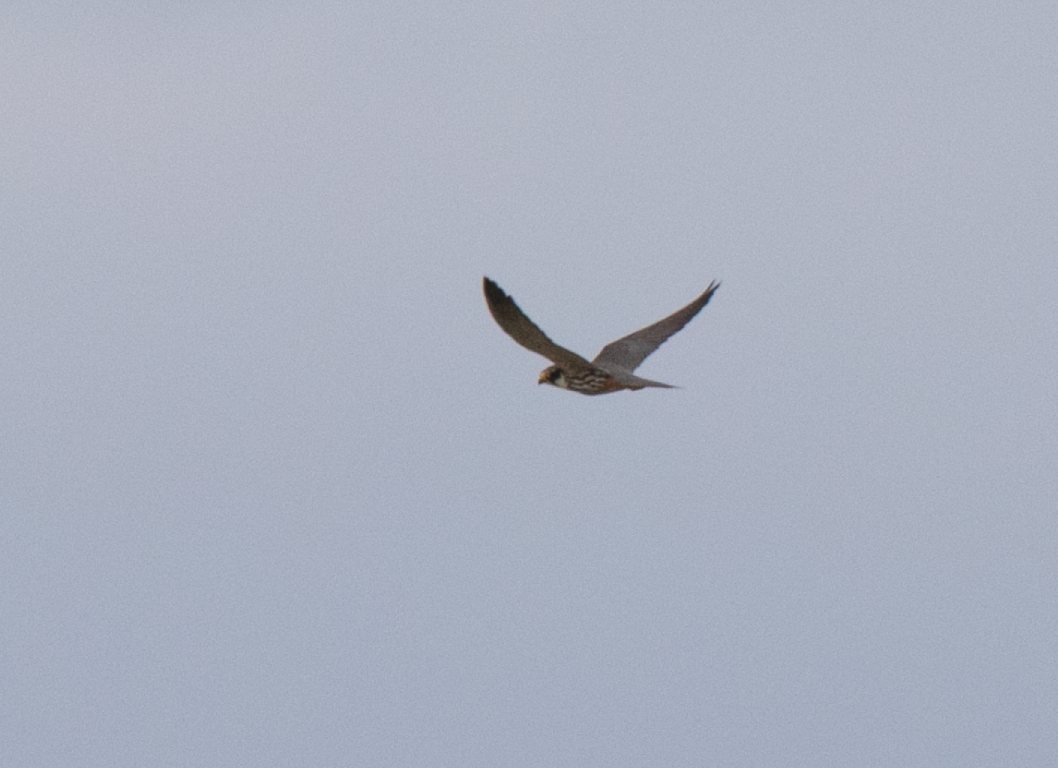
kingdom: Animalia
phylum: Chordata
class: Aves
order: Falconiformes
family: Falconidae
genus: Falco
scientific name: Falco subbuteo
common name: Eurasian hobby
